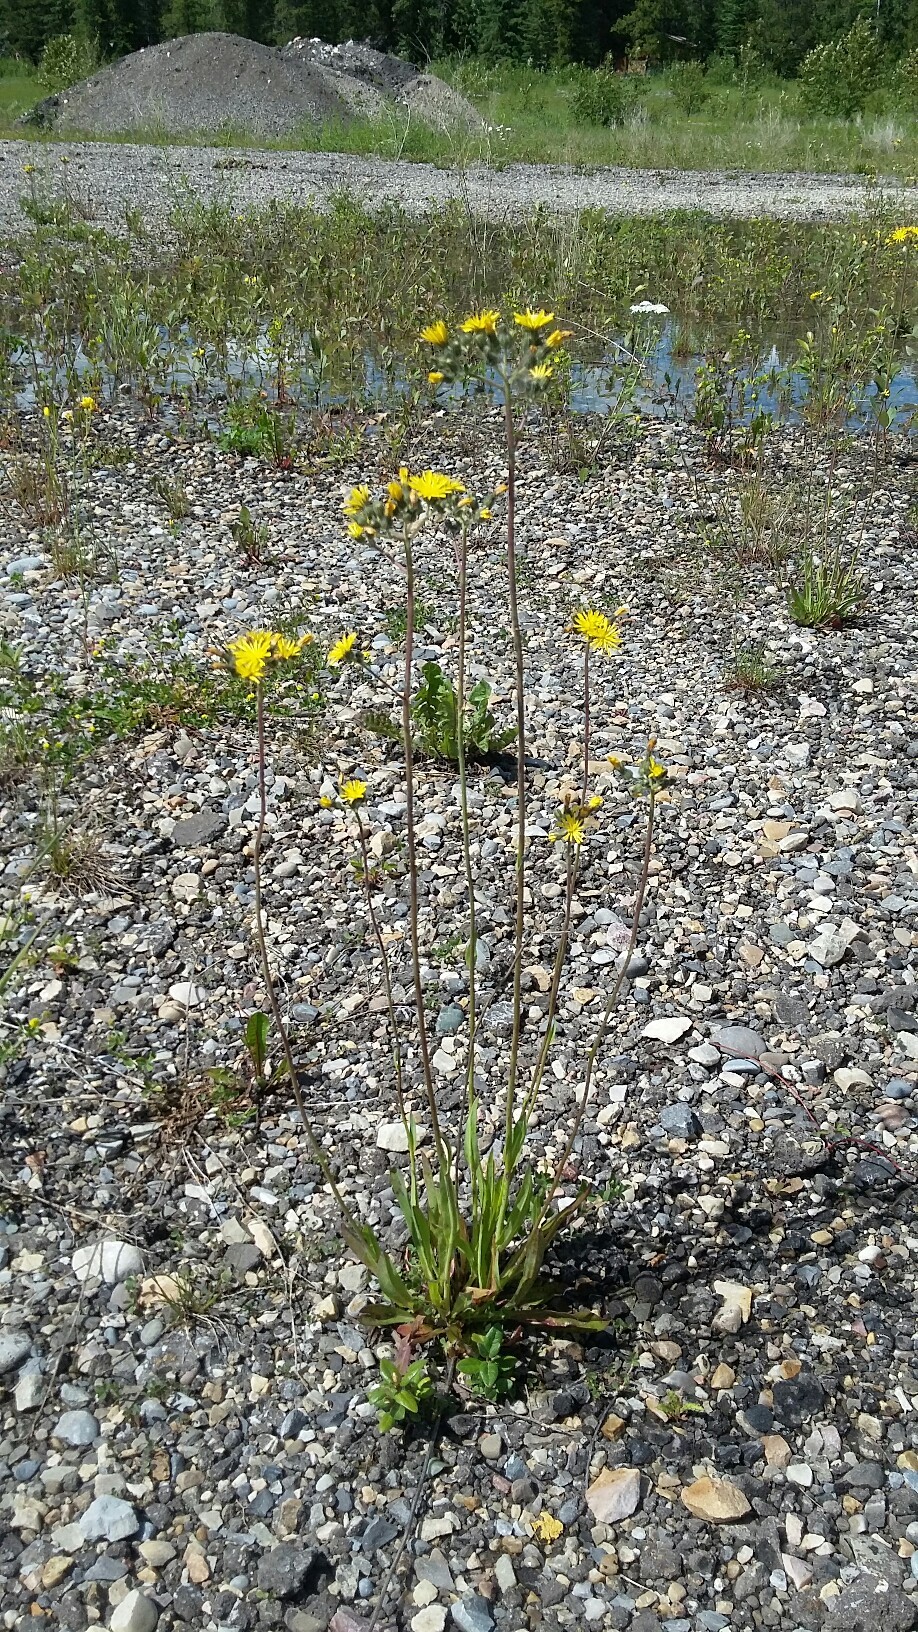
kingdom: Plantae
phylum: Tracheophyta
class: Magnoliopsida
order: Asterales
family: Asteraceae
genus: Pilosella
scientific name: Pilosella caespitosa
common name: Yellow fox-and-cubs
